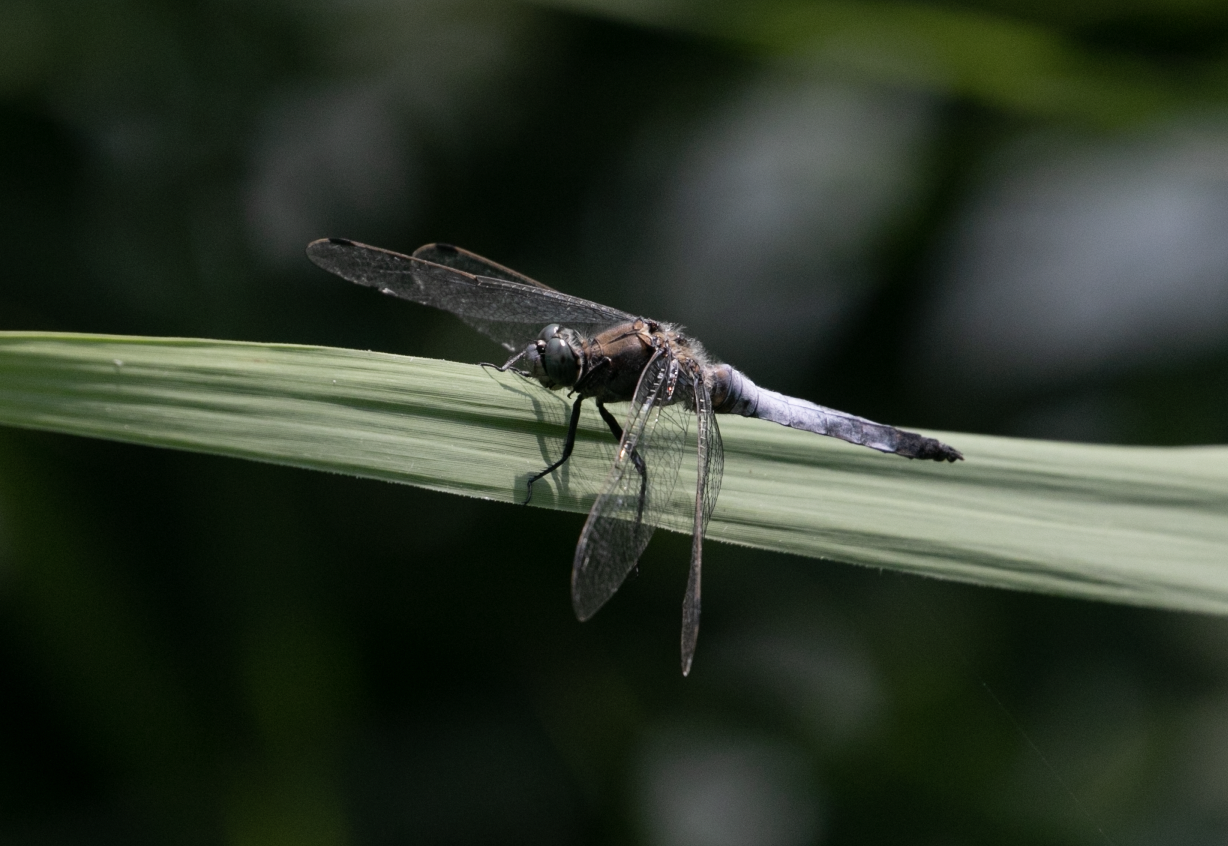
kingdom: Animalia
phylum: Arthropoda
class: Insecta
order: Odonata
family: Libellulidae
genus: Orthetrum
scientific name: Orthetrum cancellatum
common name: Black-tailed skimmer
